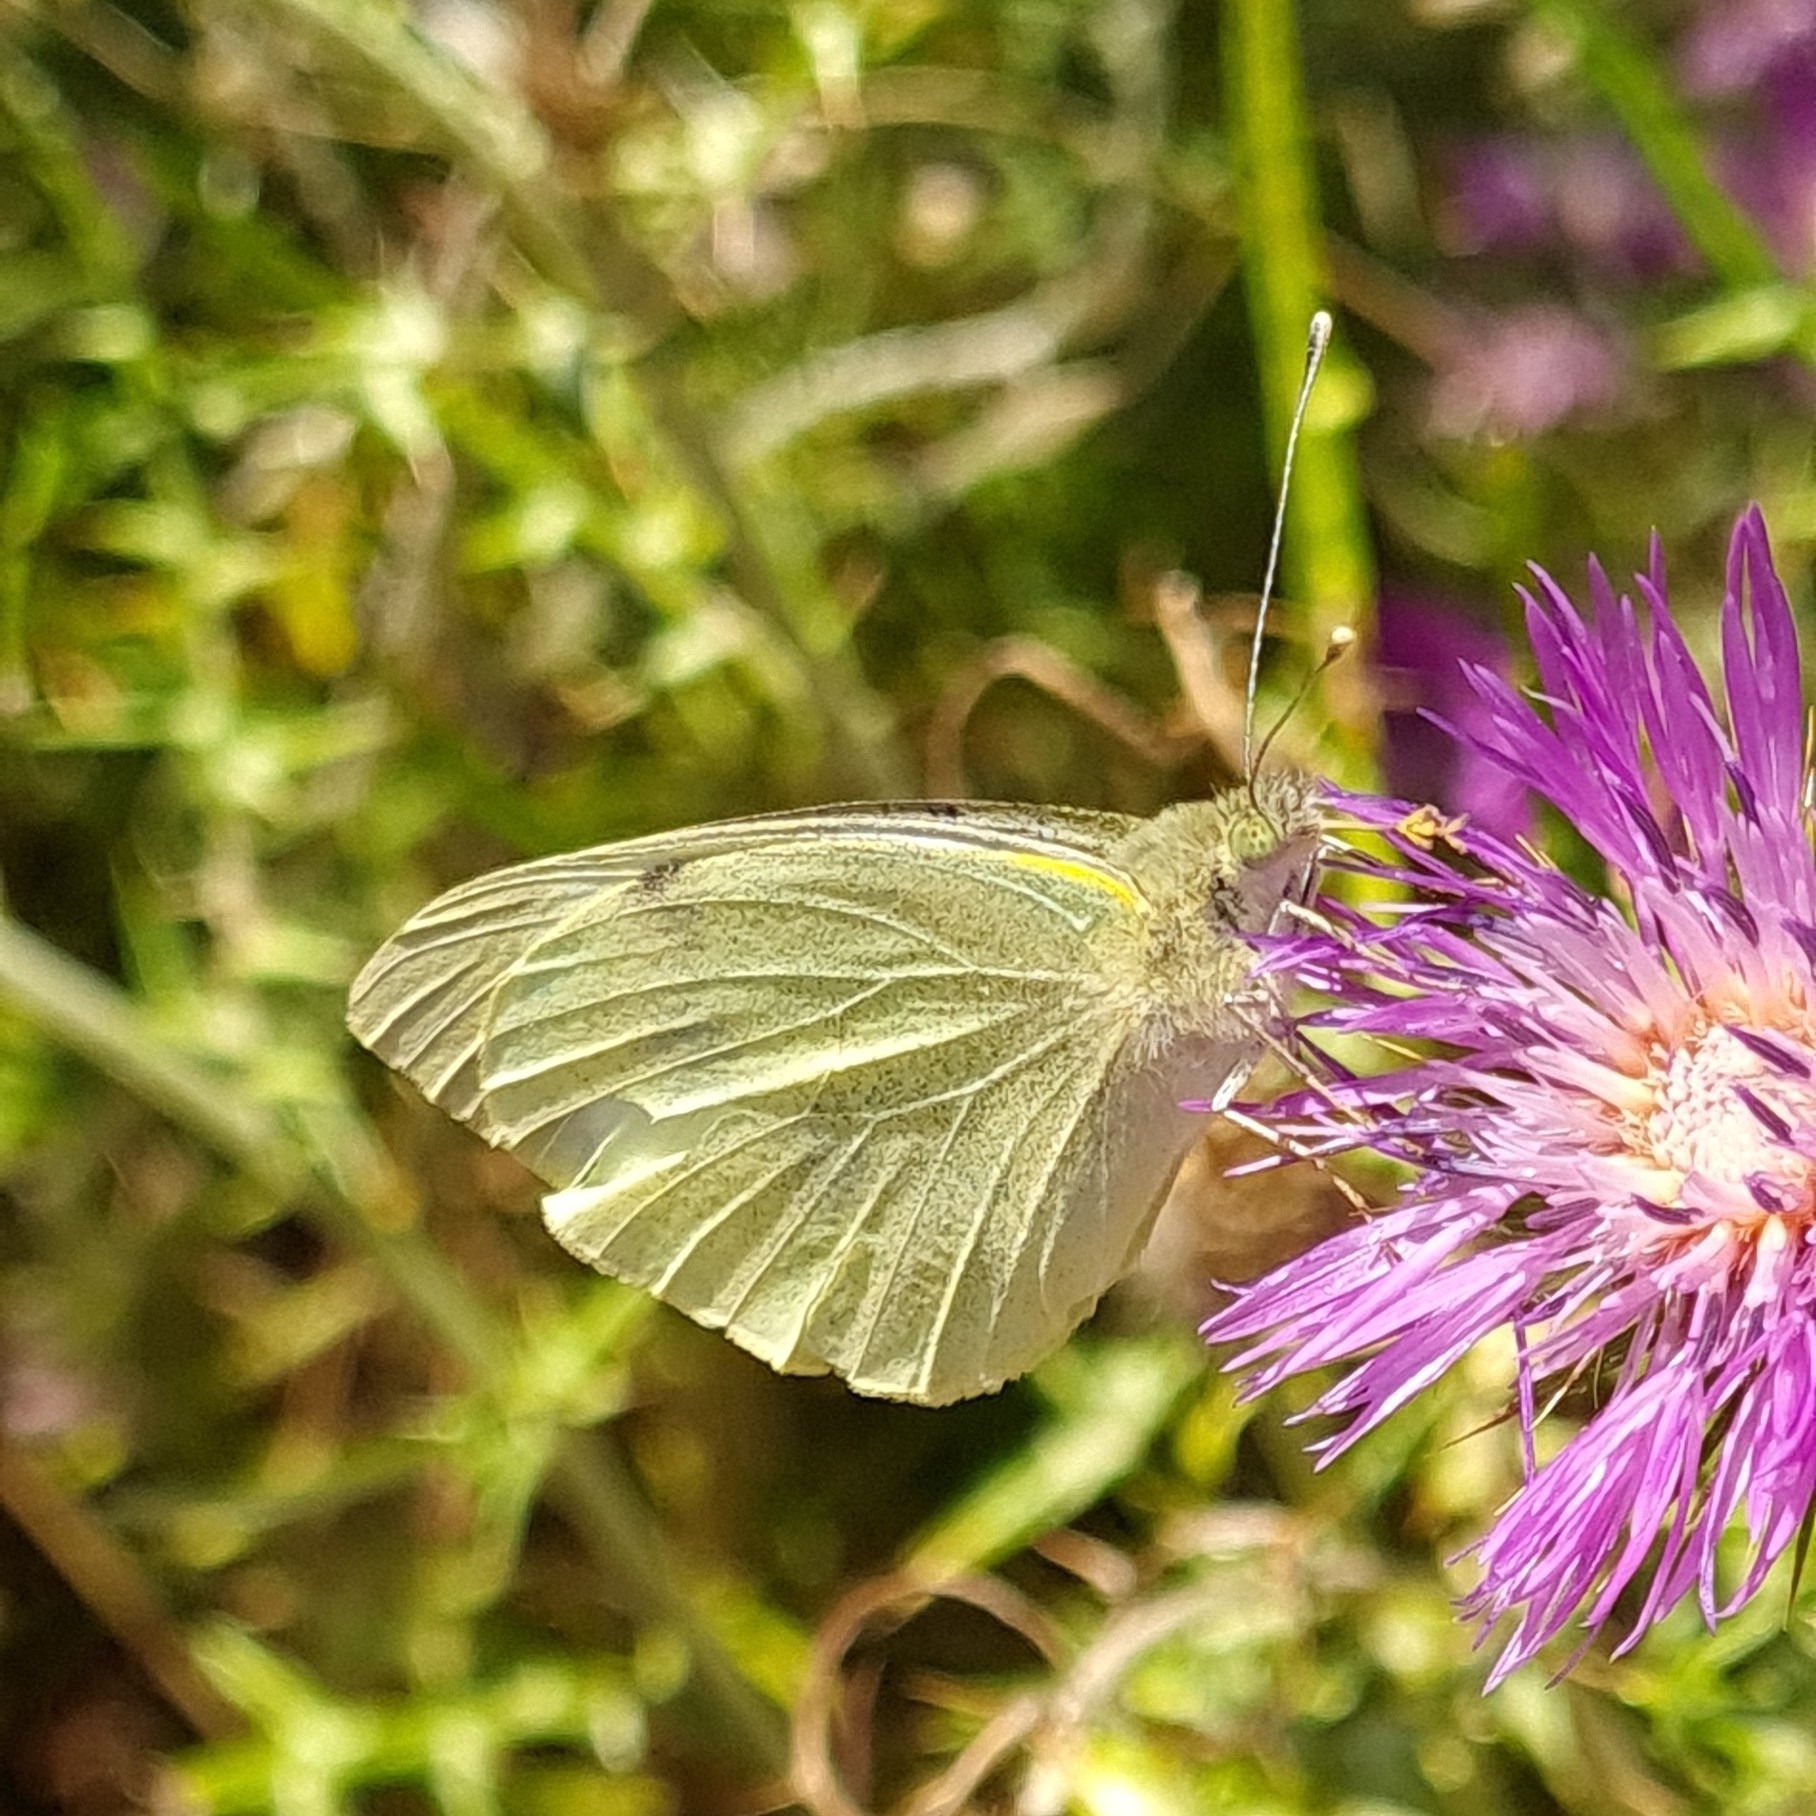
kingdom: Animalia
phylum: Arthropoda
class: Insecta
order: Lepidoptera
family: Pieridae
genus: Pieris
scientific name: Pieris brassicae
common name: Large white
